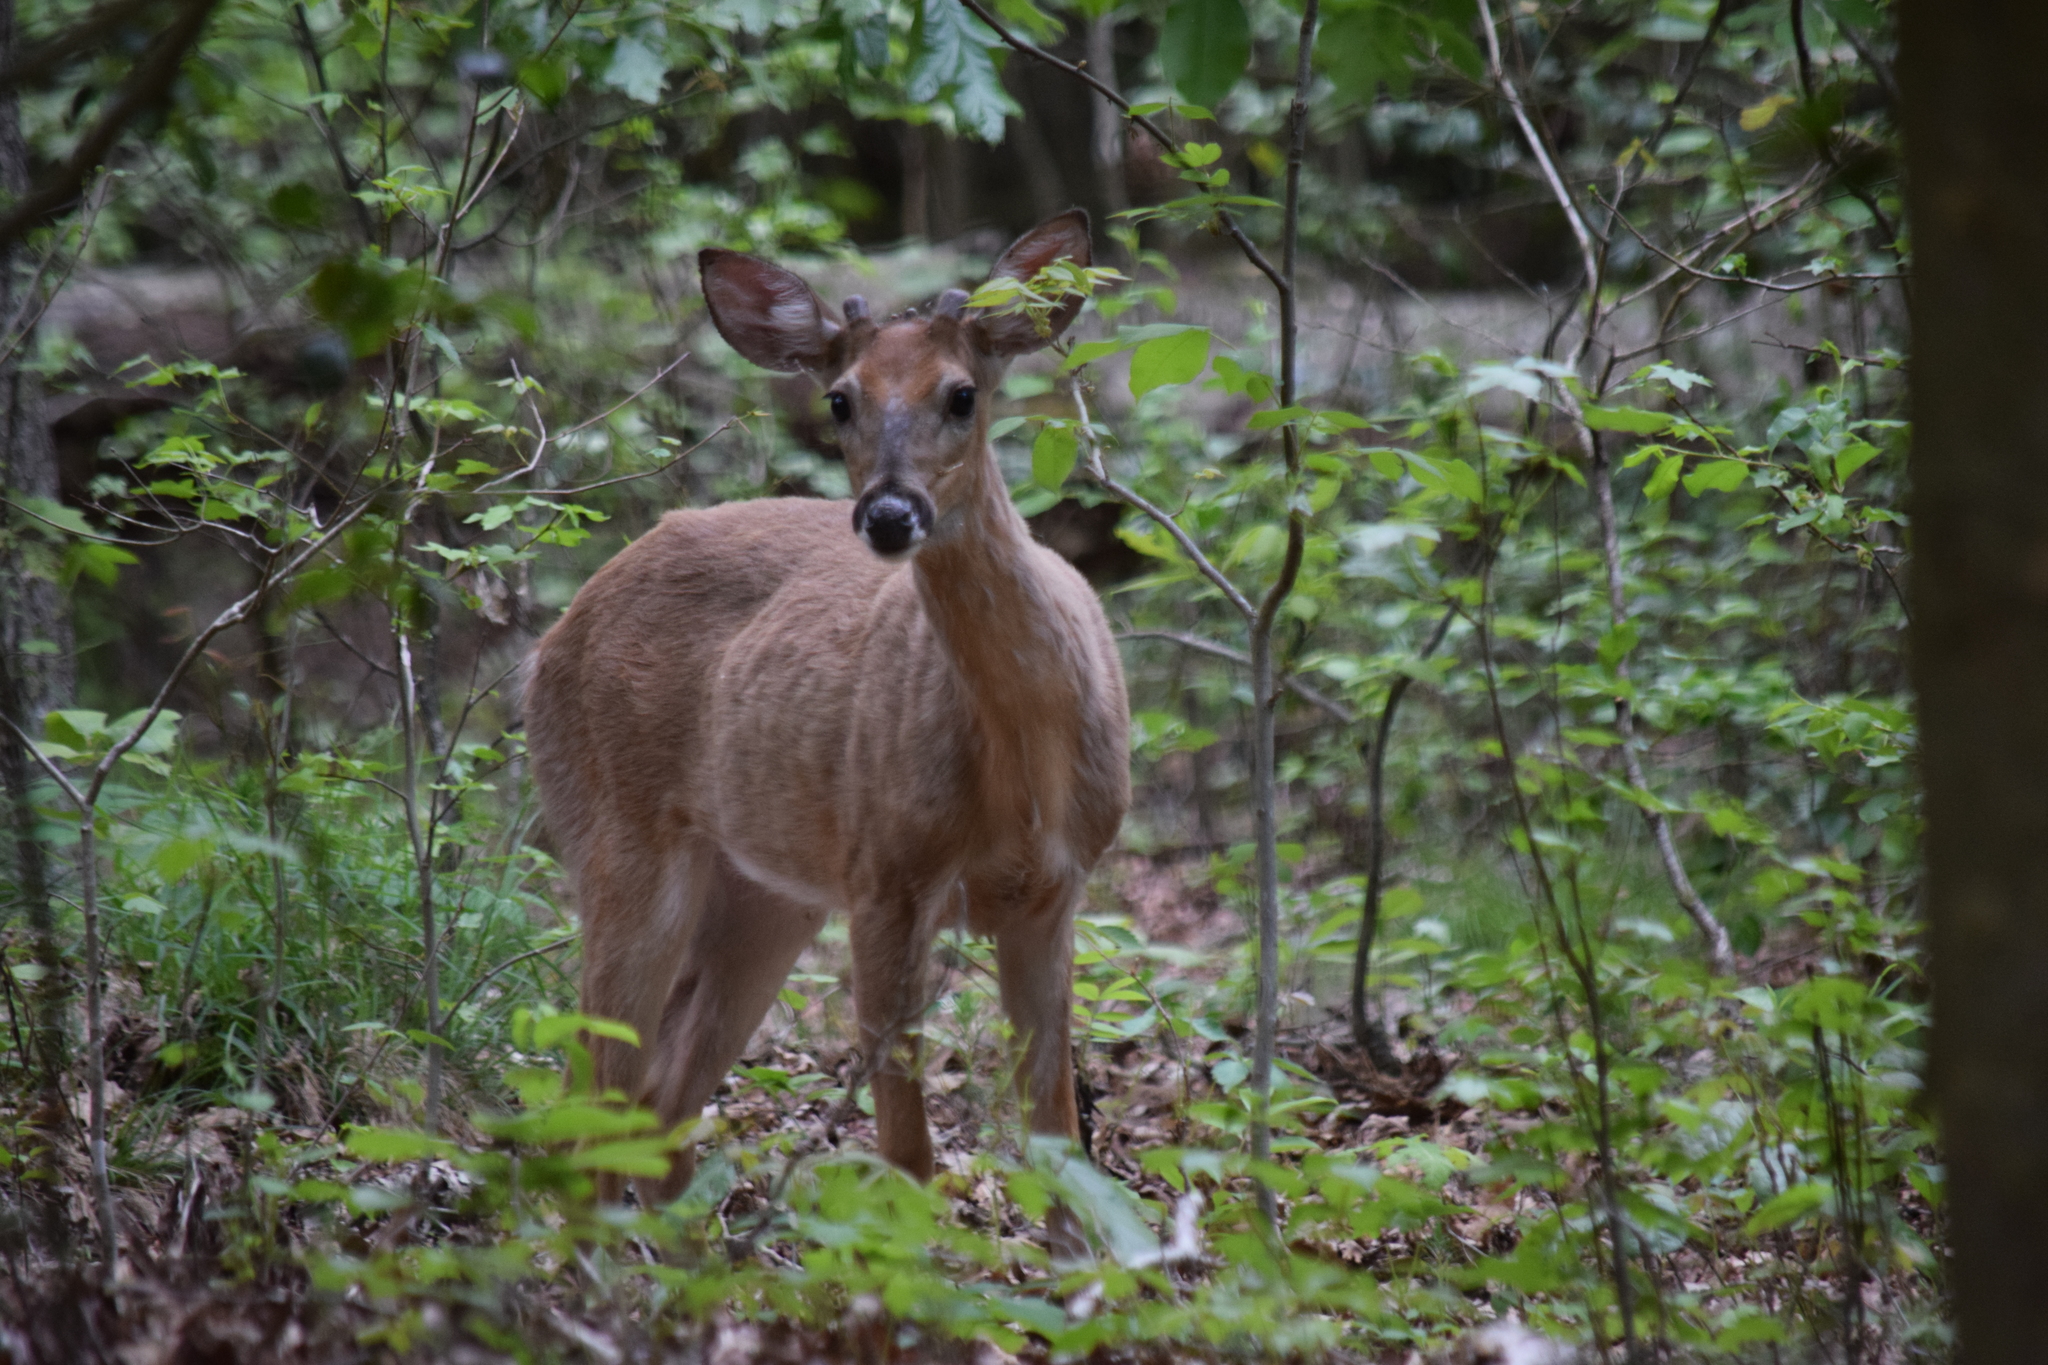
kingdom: Animalia
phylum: Chordata
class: Mammalia
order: Artiodactyla
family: Cervidae
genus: Odocoileus
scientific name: Odocoileus virginianus
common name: White-tailed deer
